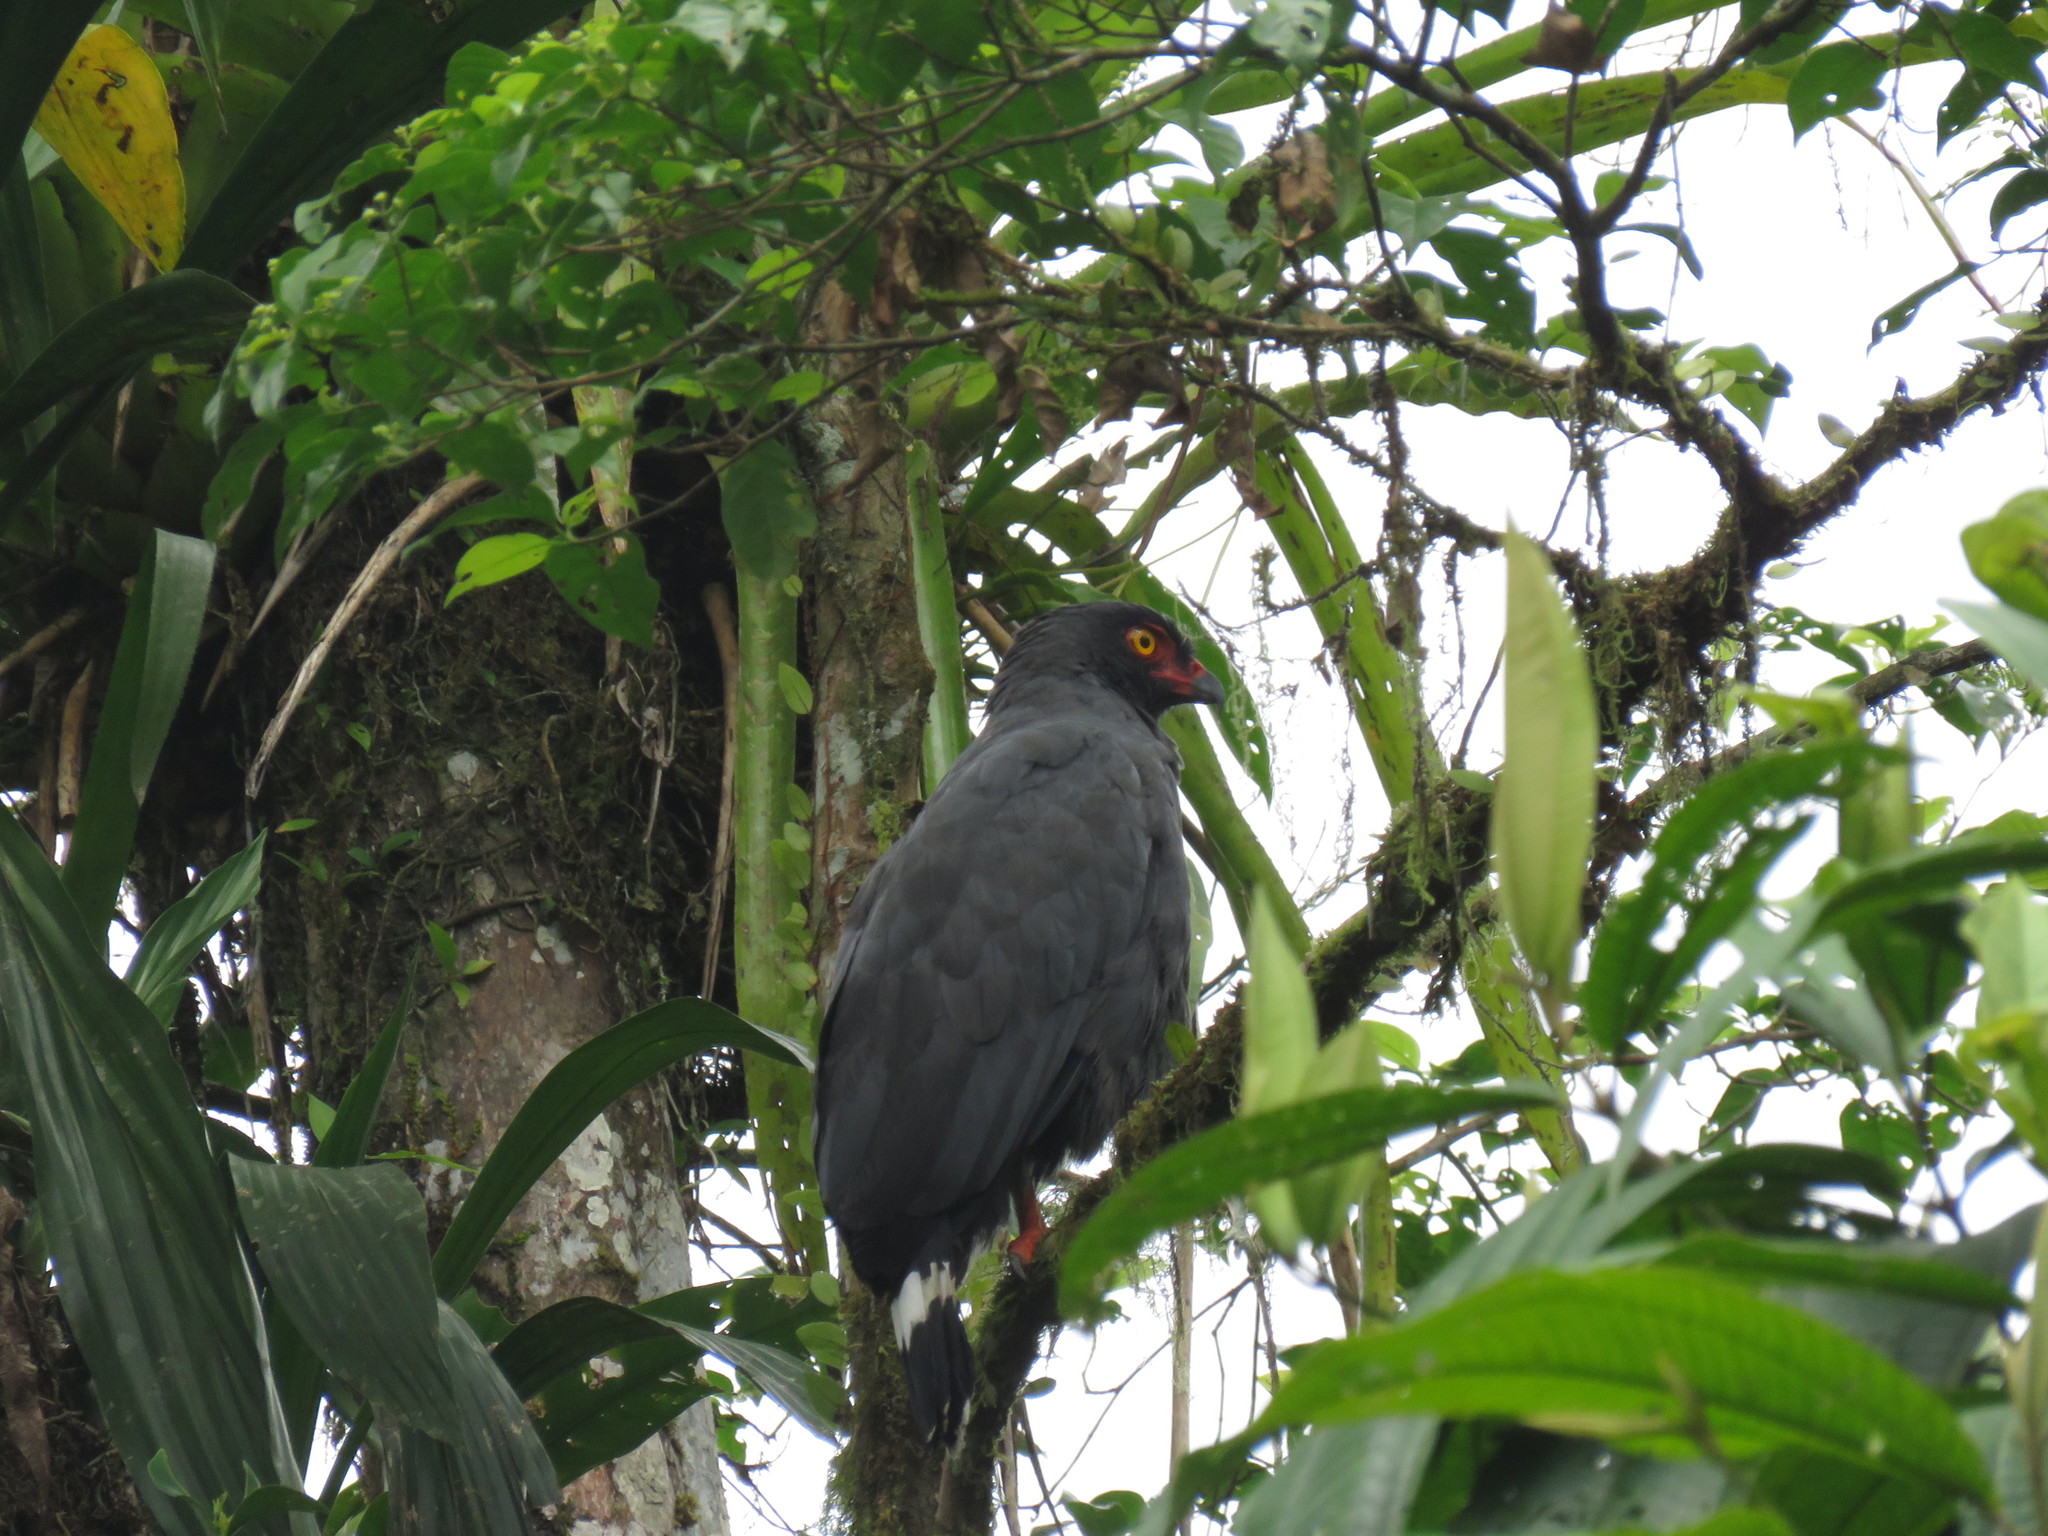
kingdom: Animalia
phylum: Chordata
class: Aves
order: Accipitriformes
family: Accipitridae
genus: Leucopternis
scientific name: Leucopternis schistaceus
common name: Slate-colored hawk
